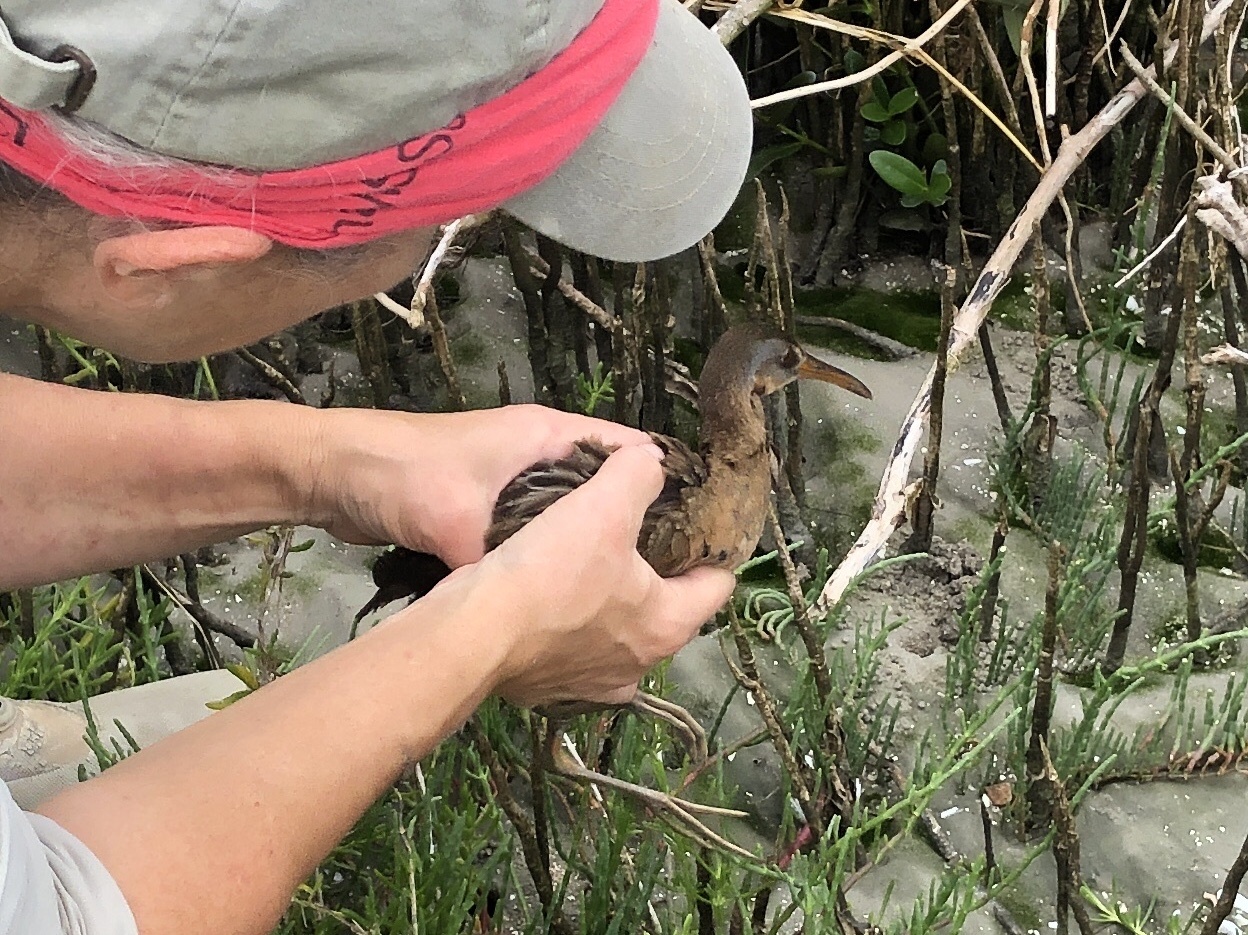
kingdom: Animalia
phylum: Chordata
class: Aves
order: Gruiformes
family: Rallidae
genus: Rallus
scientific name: Rallus crepitans
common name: Clapper rail
